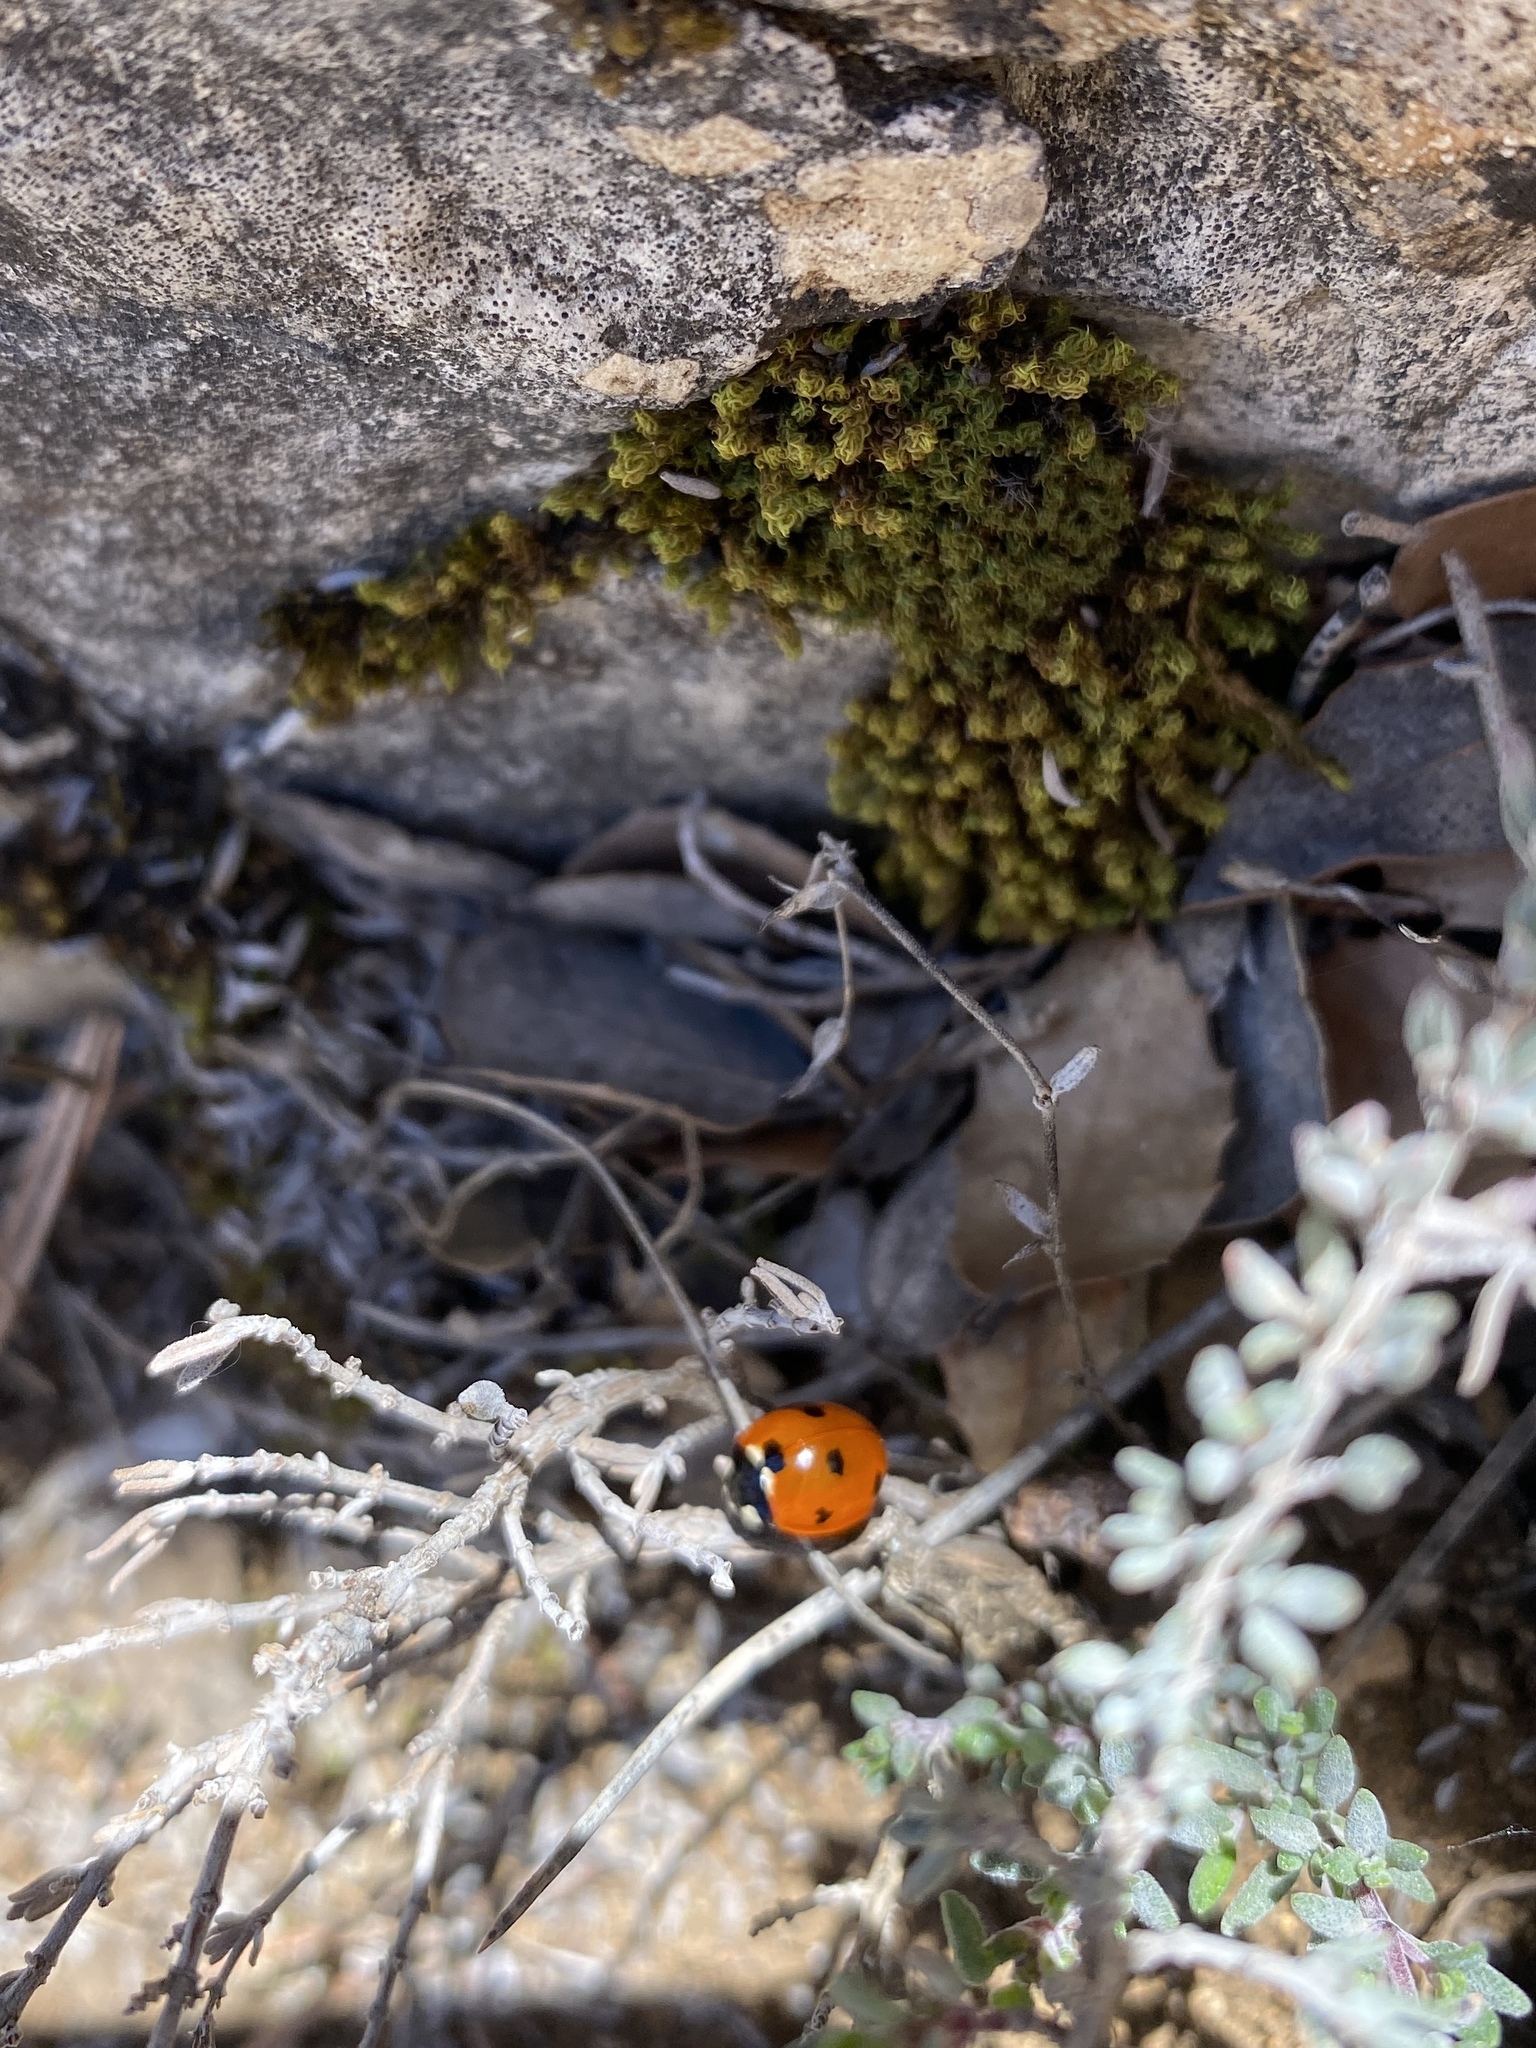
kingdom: Animalia
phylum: Arthropoda
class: Insecta
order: Coleoptera
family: Coccinellidae
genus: Coccinella
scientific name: Coccinella septempunctata
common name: Sevenspotted lady beetle
